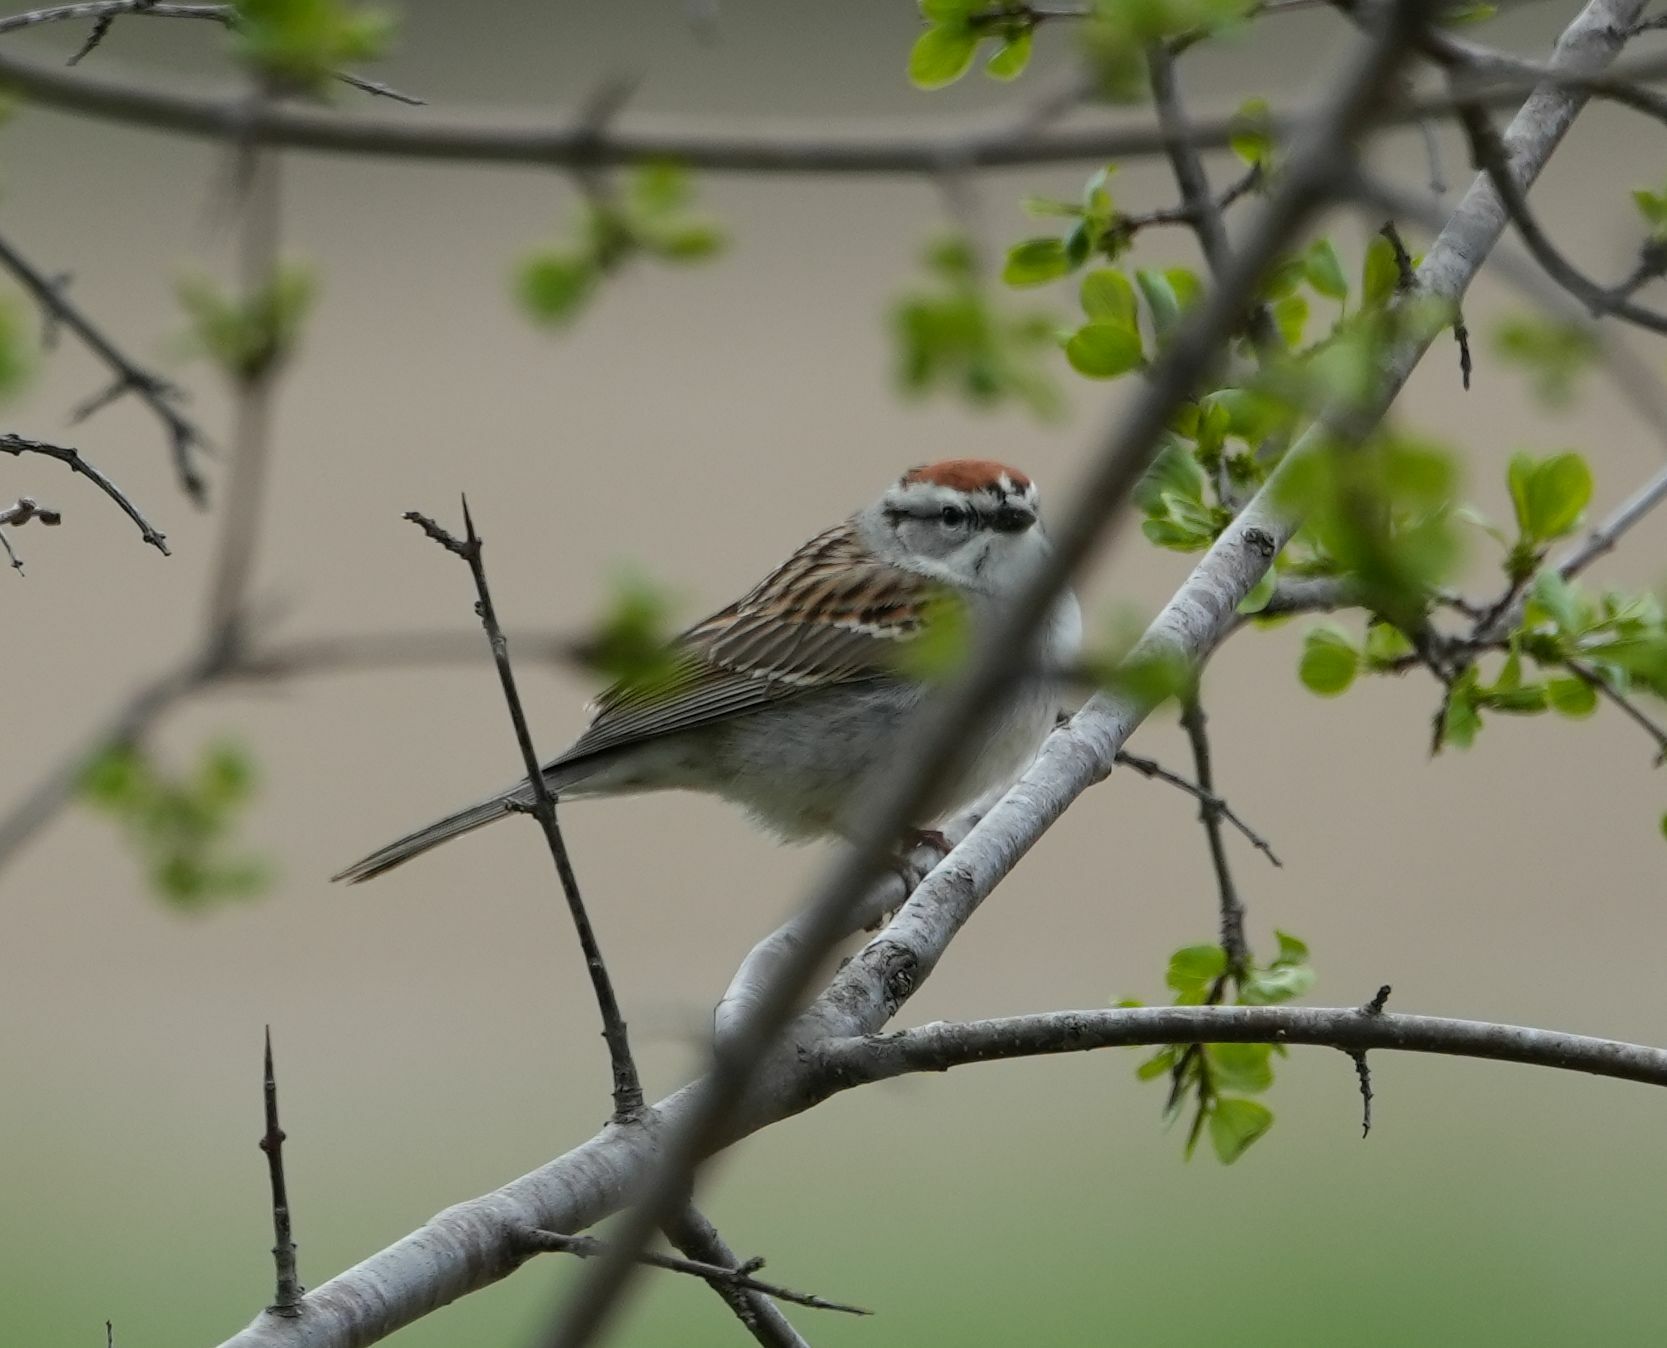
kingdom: Animalia
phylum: Chordata
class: Aves
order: Passeriformes
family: Passerellidae
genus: Spizella
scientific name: Spizella passerina
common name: Chipping sparrow
